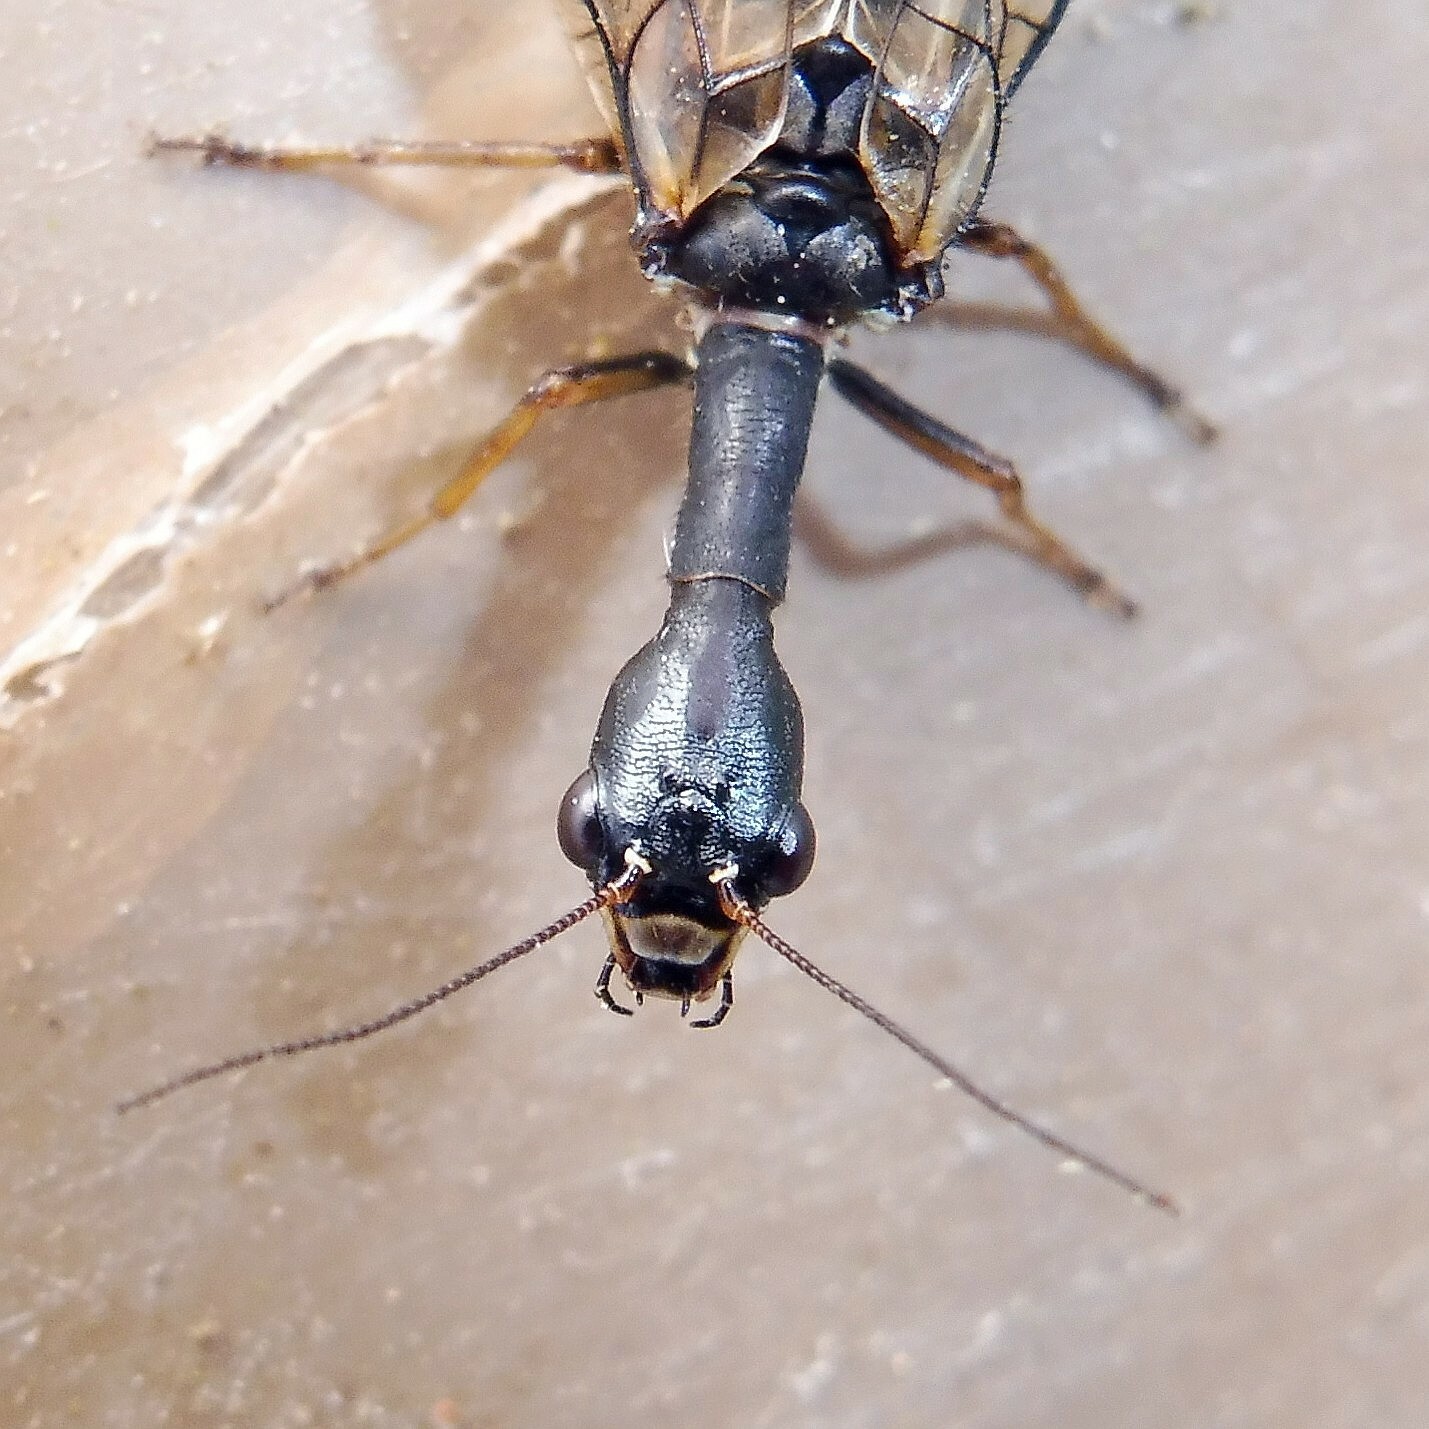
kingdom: Animalia
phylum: Arthropoda
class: Insecta
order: Raphidioptera
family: Raphidiidae
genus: Phaeostigma
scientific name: Phaeostigma notatum
